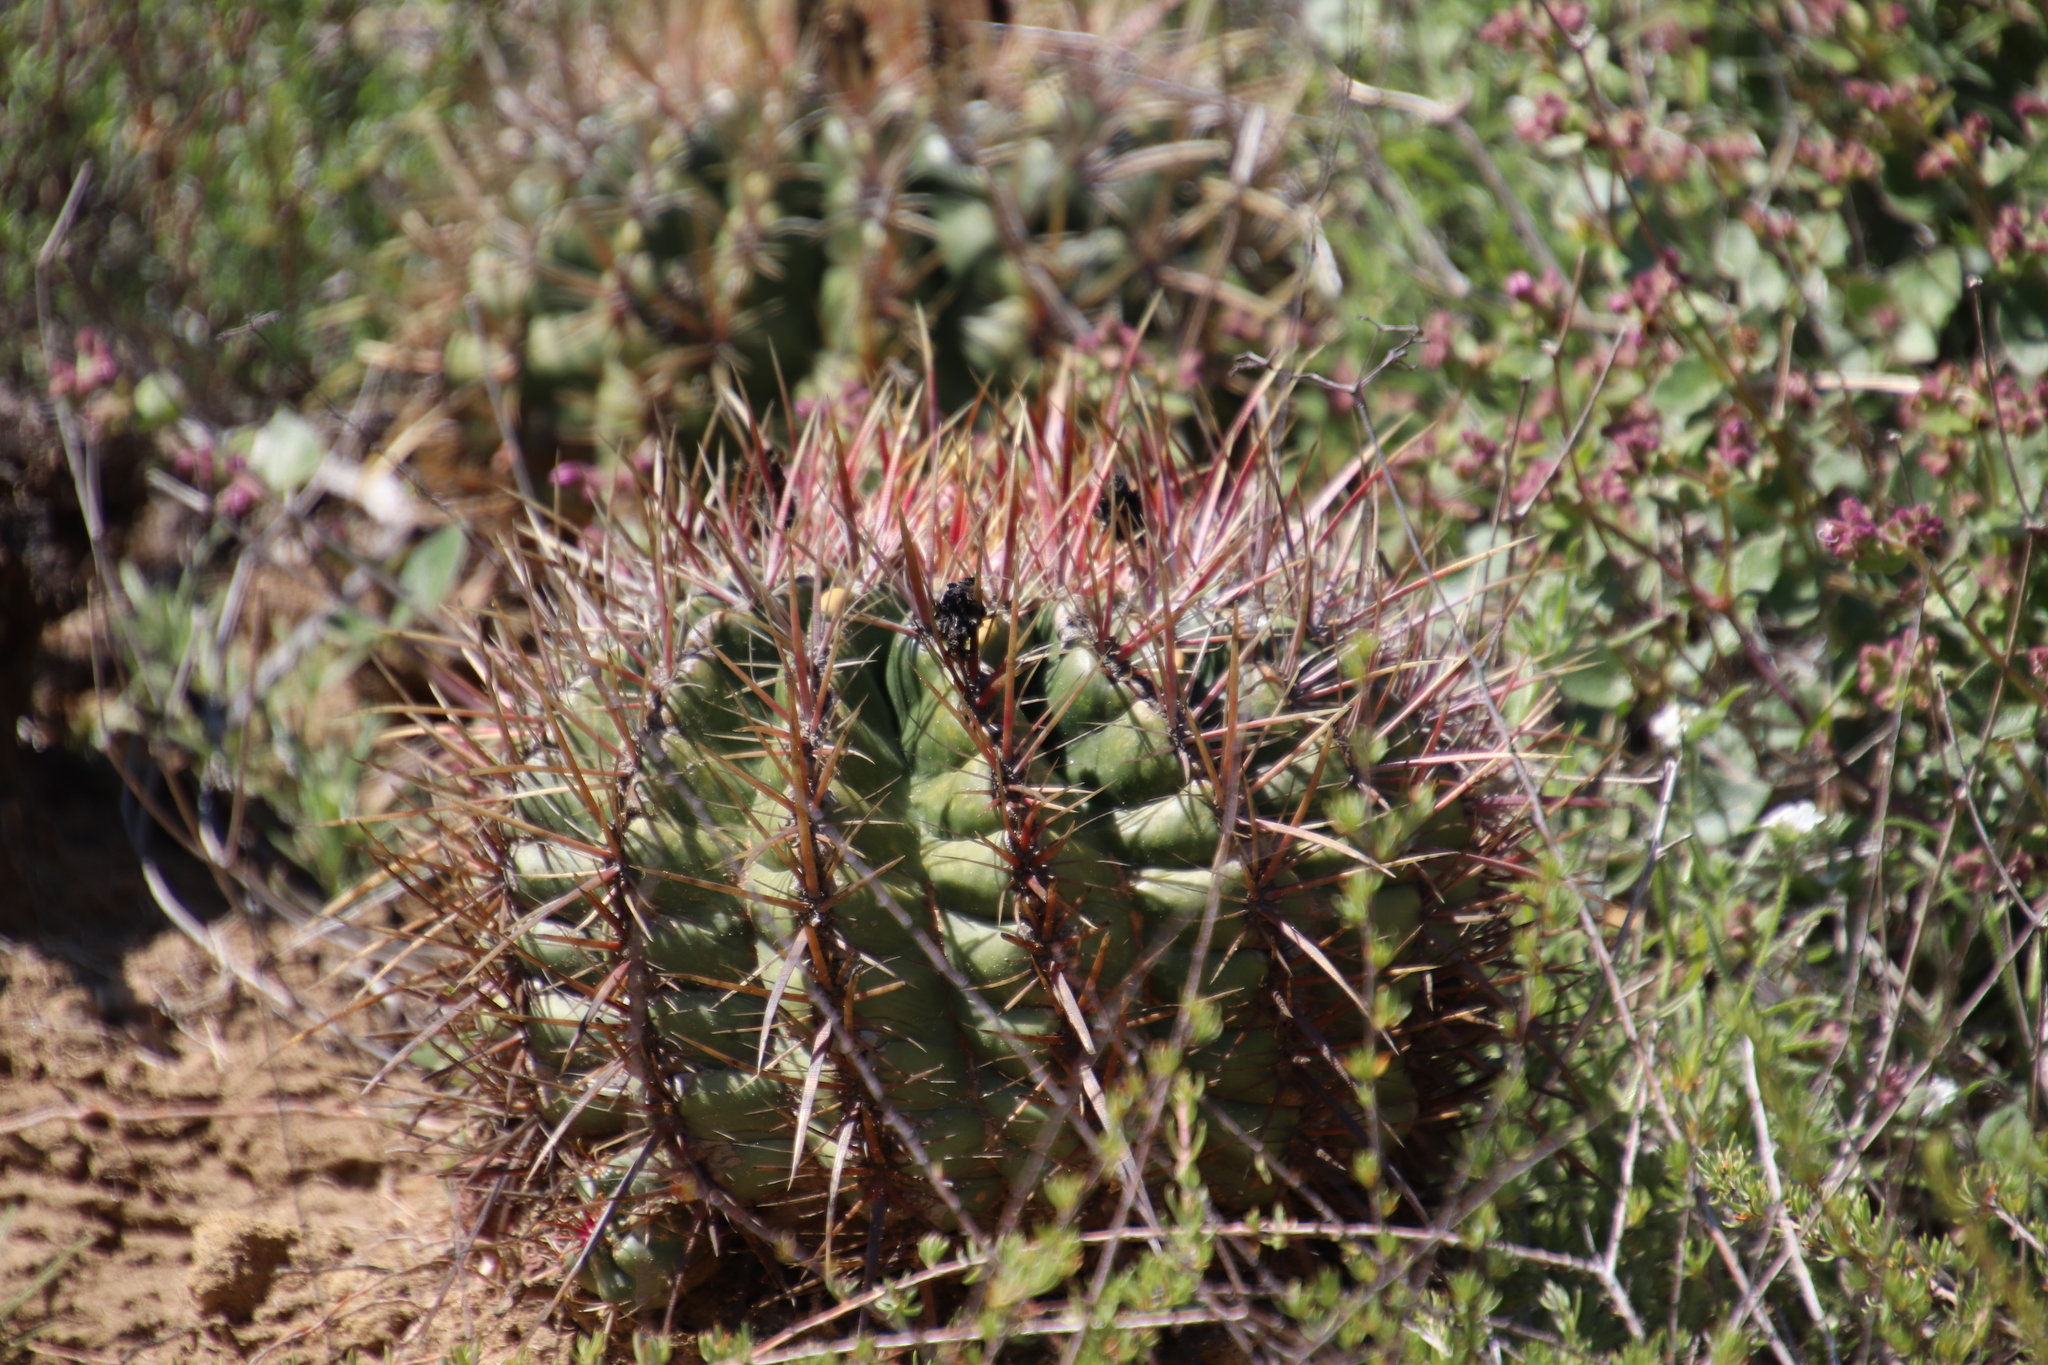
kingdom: Plantae
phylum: Tracheophyta
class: Magnoliopsida
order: Caryophyllales
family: Cactaceae
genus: Ferocactus
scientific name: Ferocactus viridescens
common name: San diego barrel cactus
